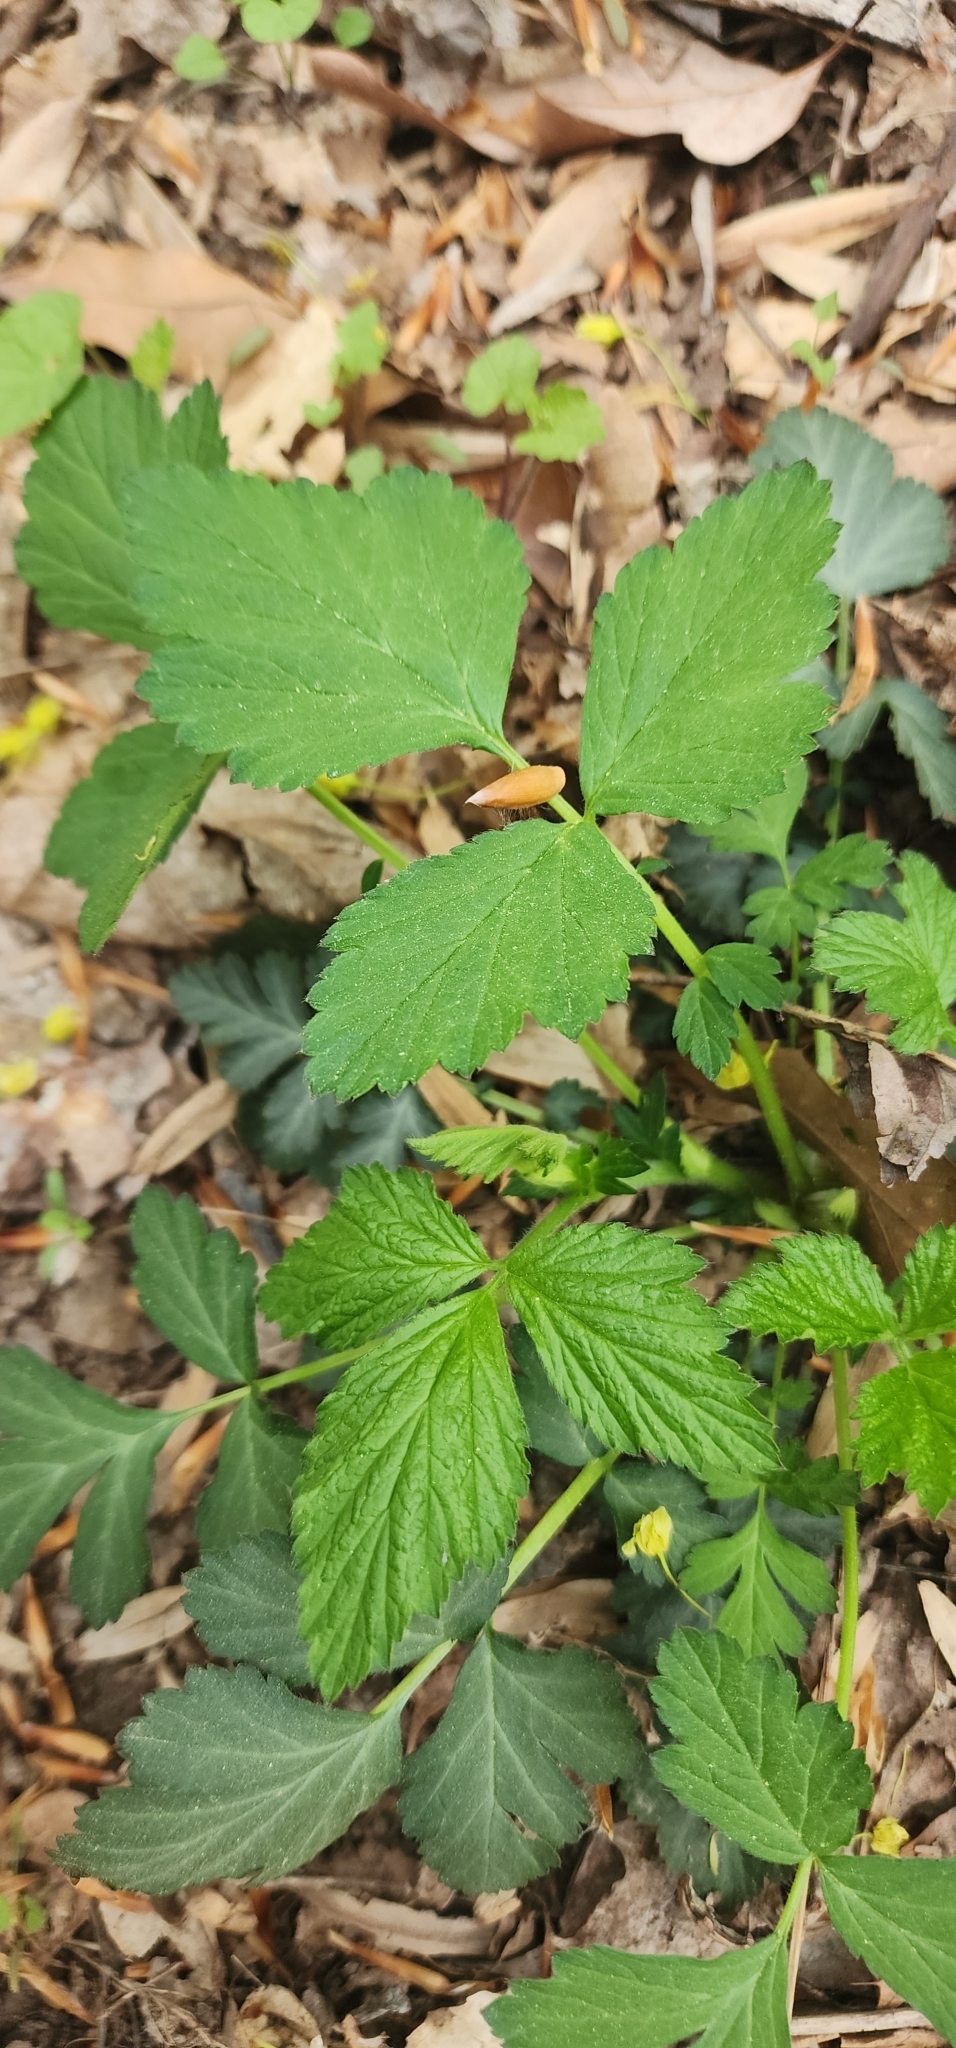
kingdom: Plantae
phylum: Tracheophyta
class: Magnoliopsida
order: Rosales
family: Rosaceae
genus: Geum
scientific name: Geum canadense
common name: White avens
